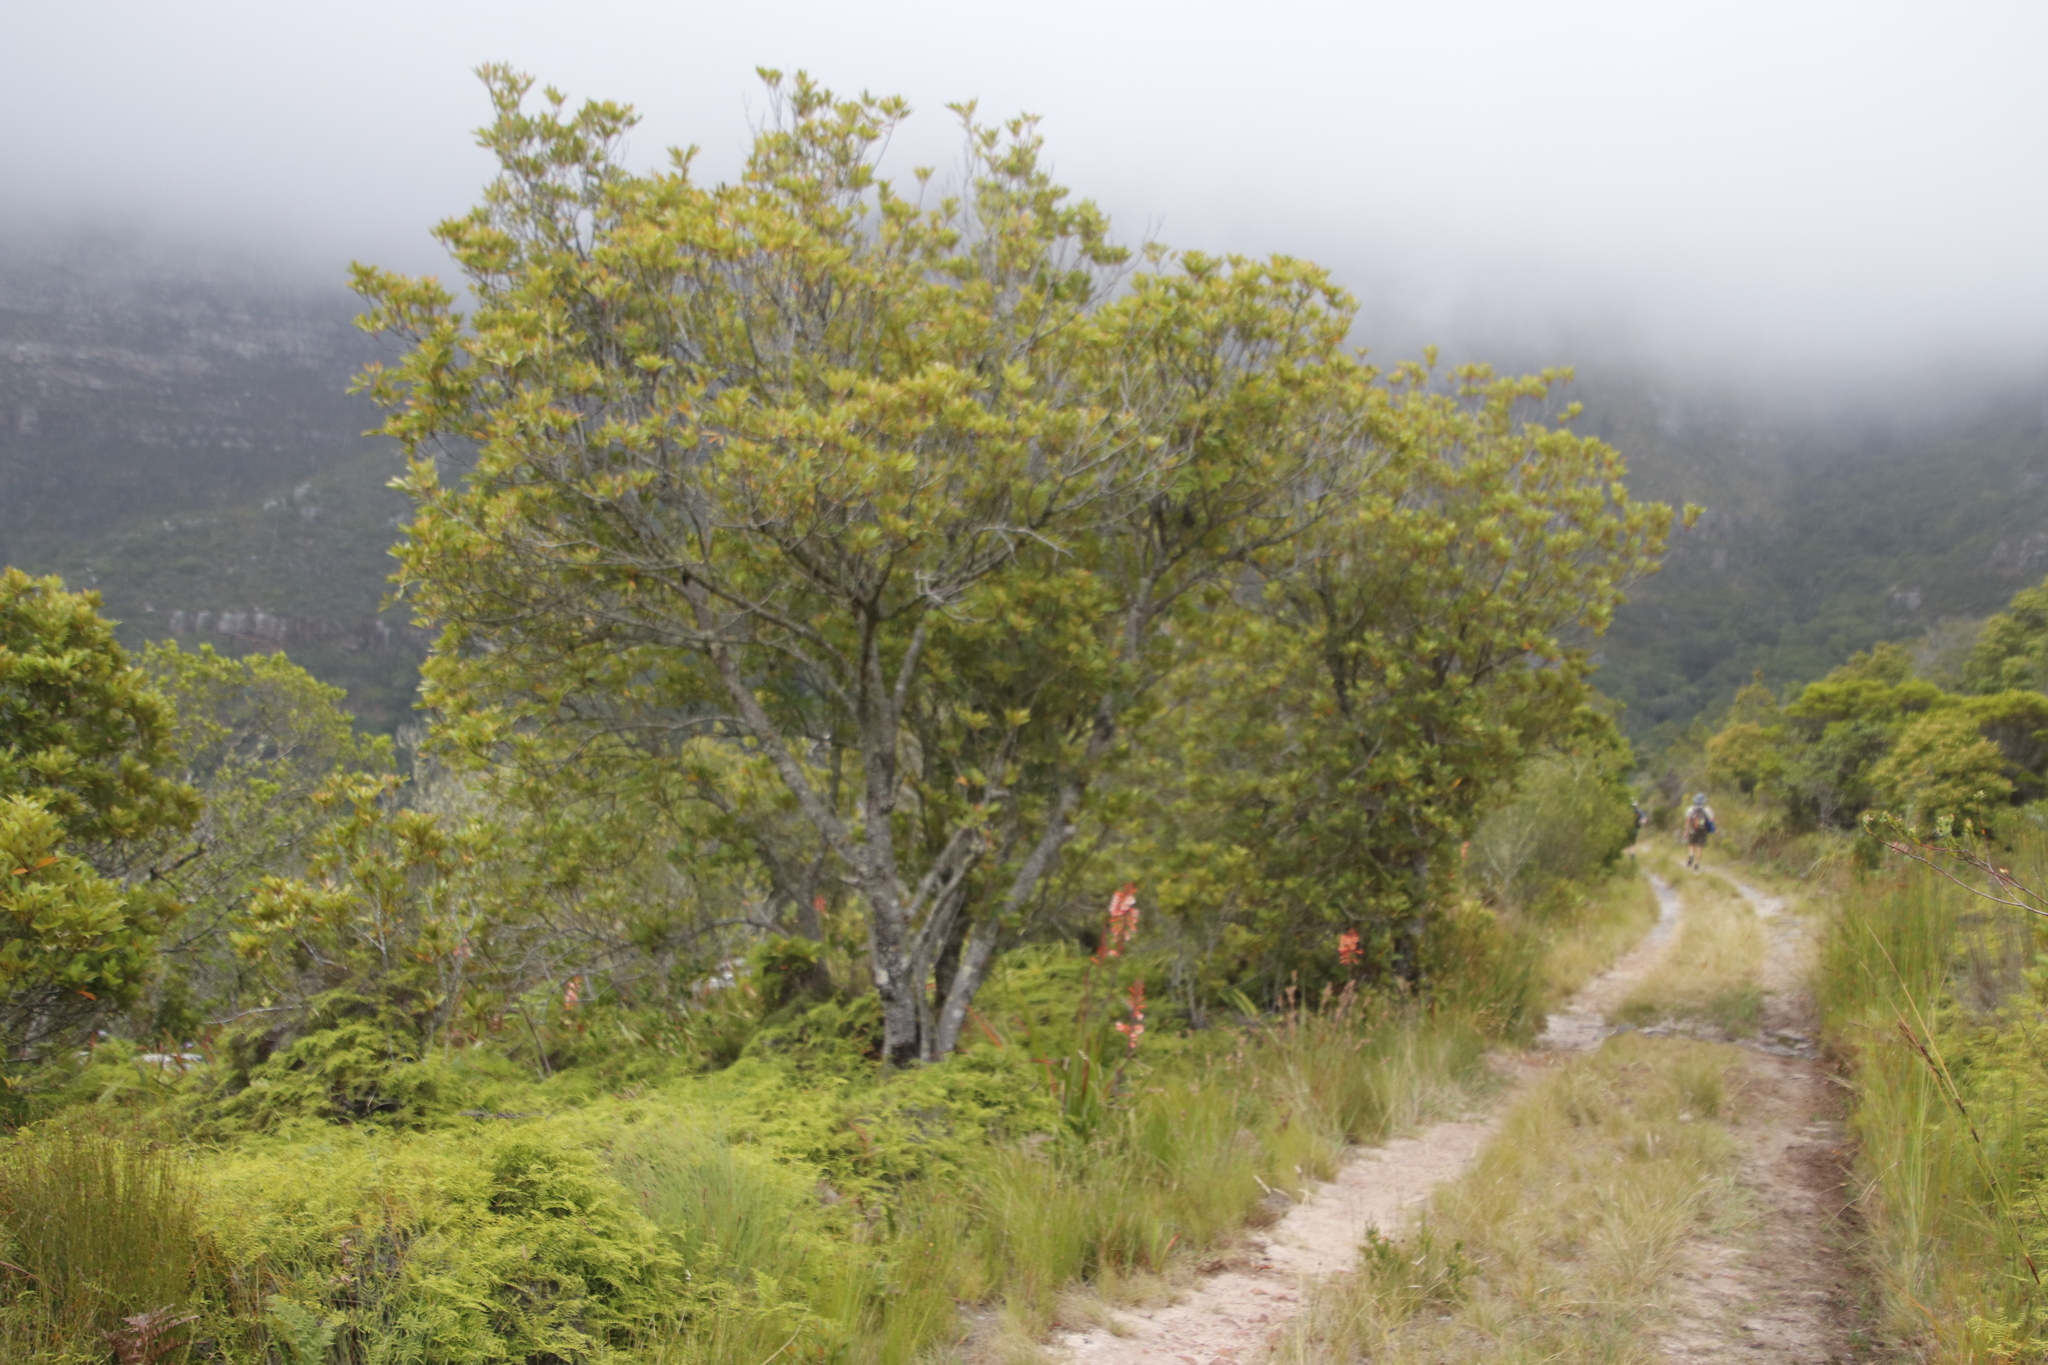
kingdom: Plantae
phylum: Tracheophyta
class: Magnoliopsida
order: Oxalidales
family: Cunoniaceae
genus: Cunonia
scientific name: Cunonia capensis
